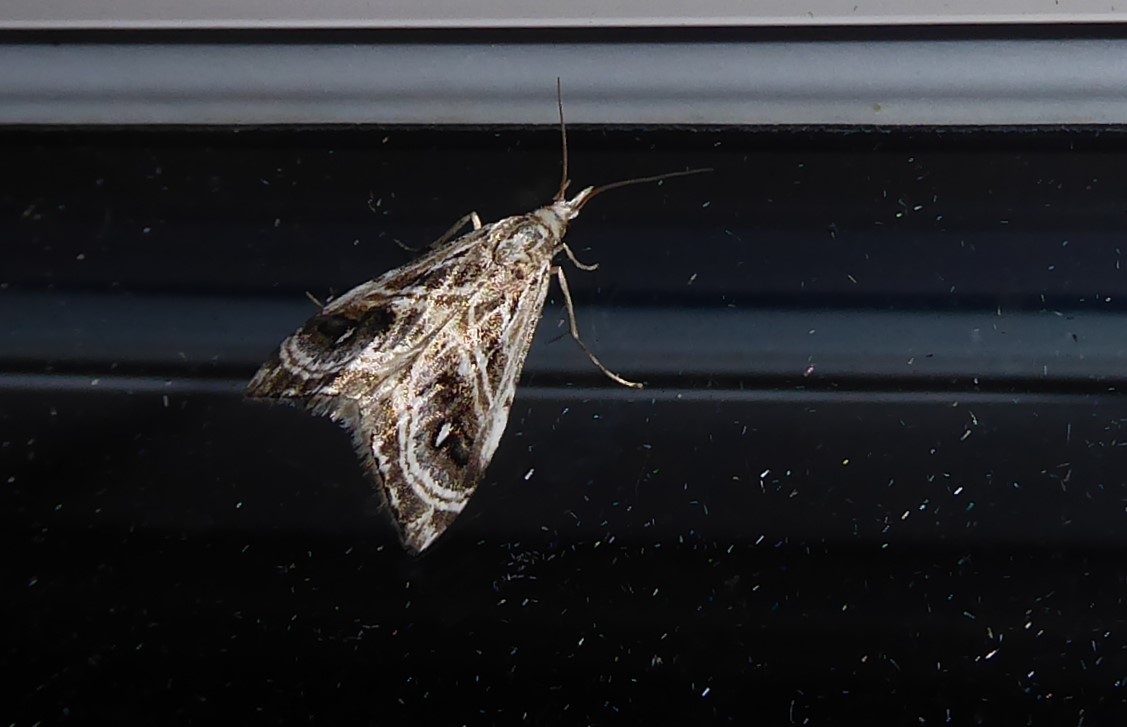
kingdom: Animalia
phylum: Arthropoda
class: Insecta
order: Lepidoptera
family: Crambidae
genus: Gadira
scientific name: Gadira acerella
